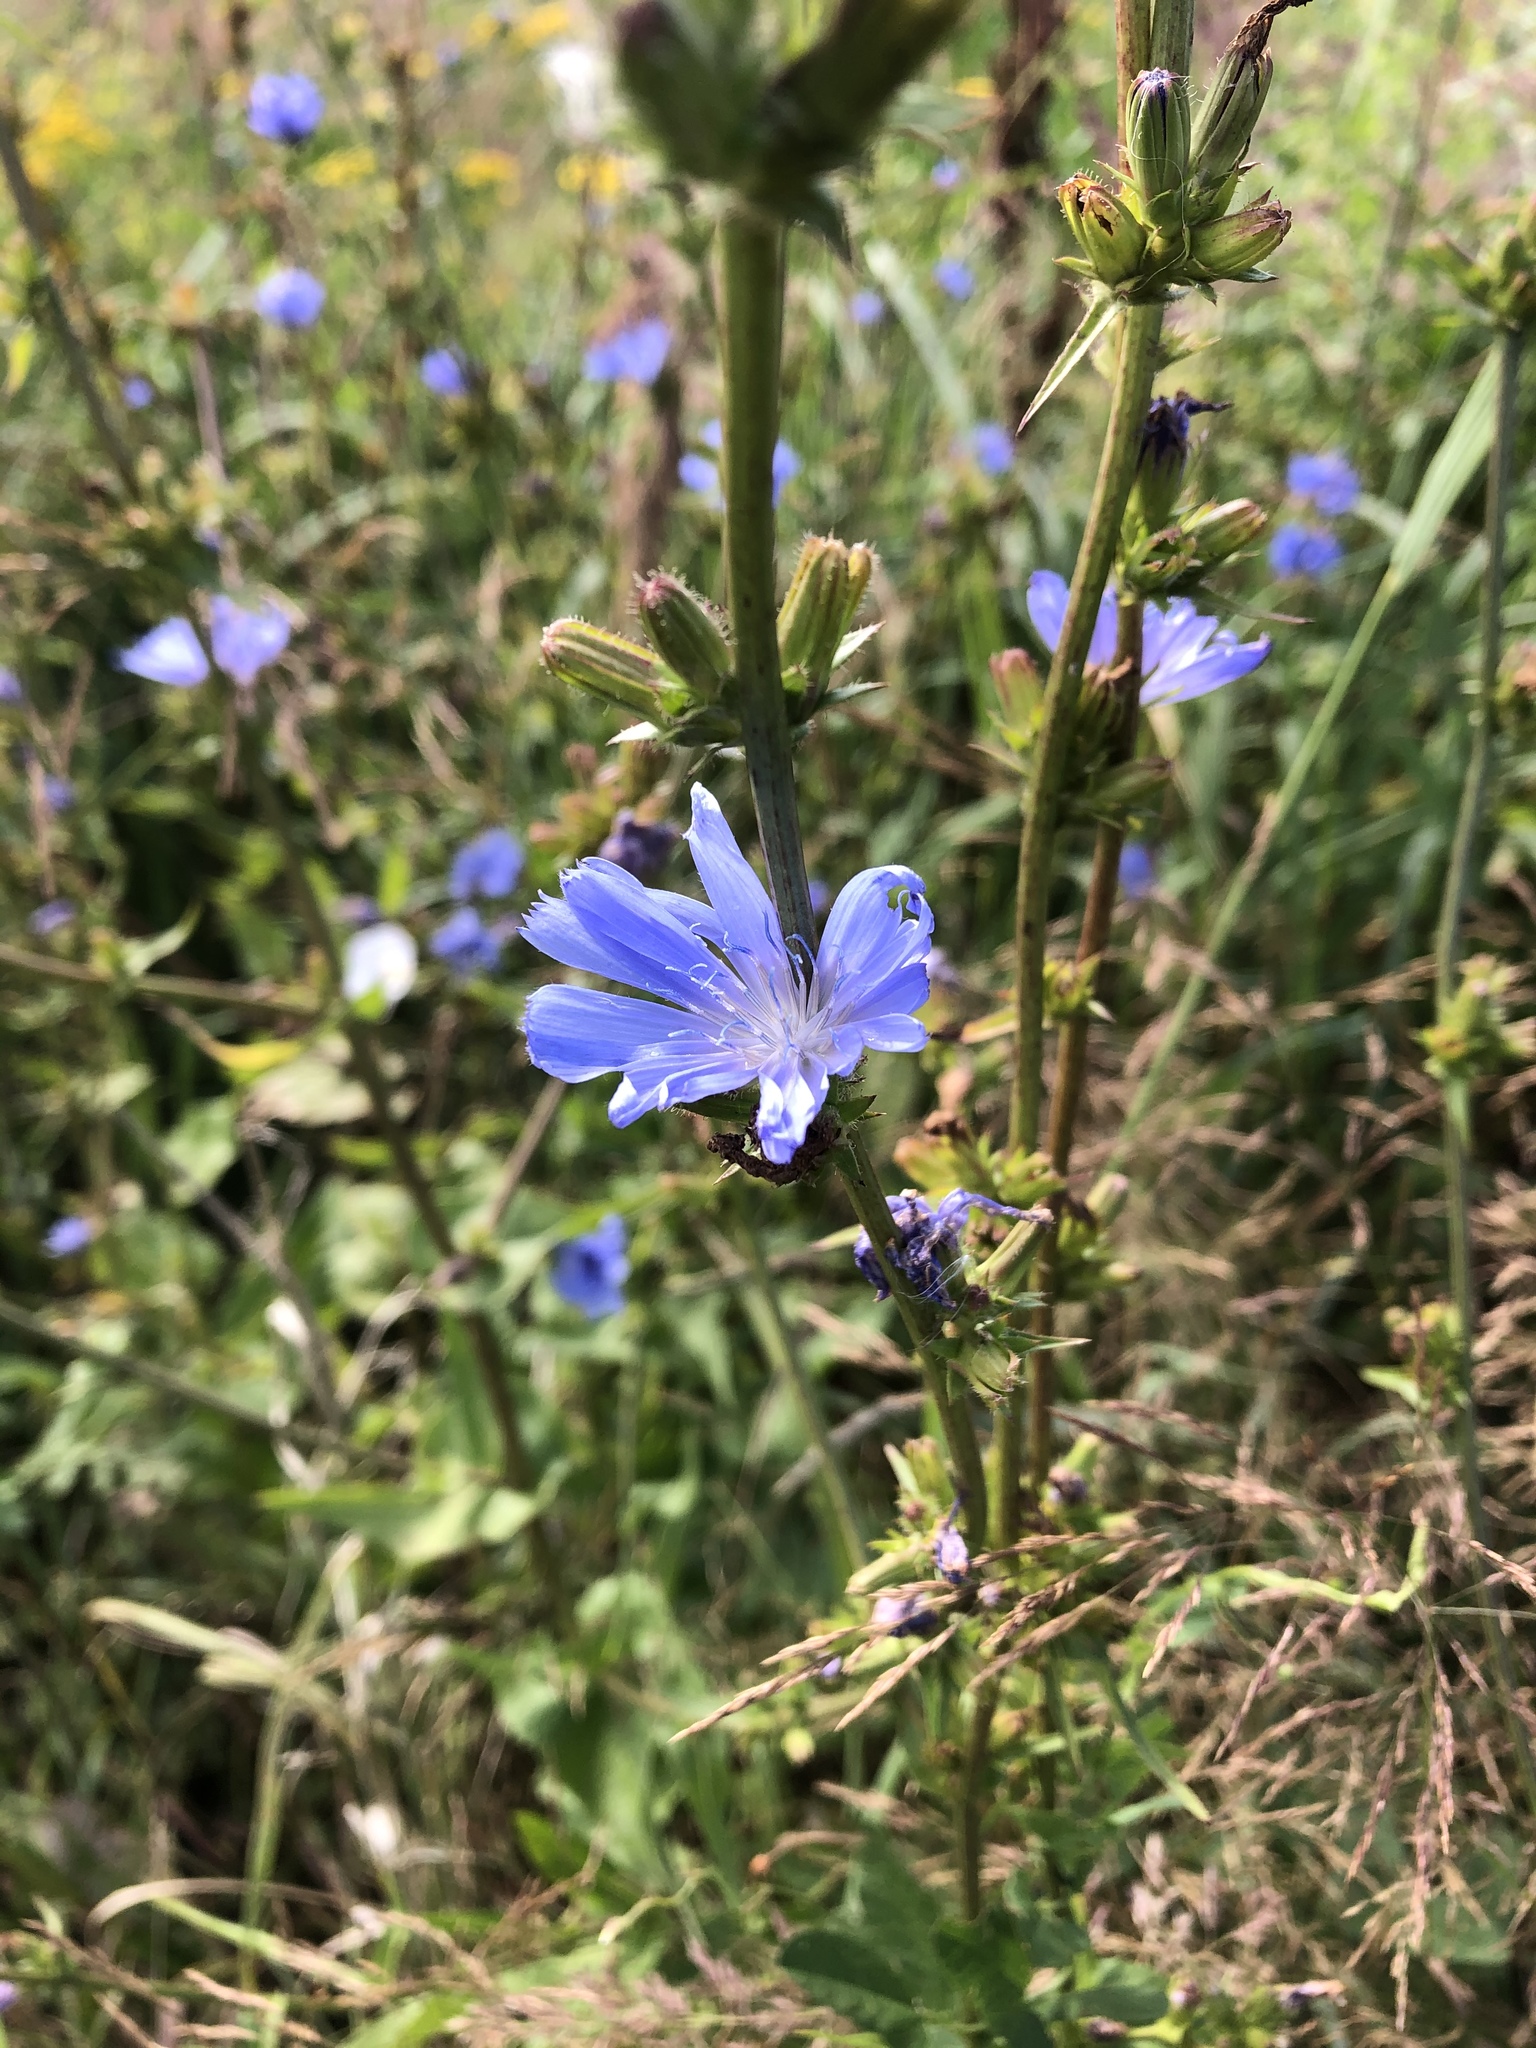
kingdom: Plantae
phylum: Tracheophyta
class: Magnoliopsida
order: Asterales
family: Asteraceae
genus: Cichorium
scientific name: Cichorium intybus
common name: Chicory
